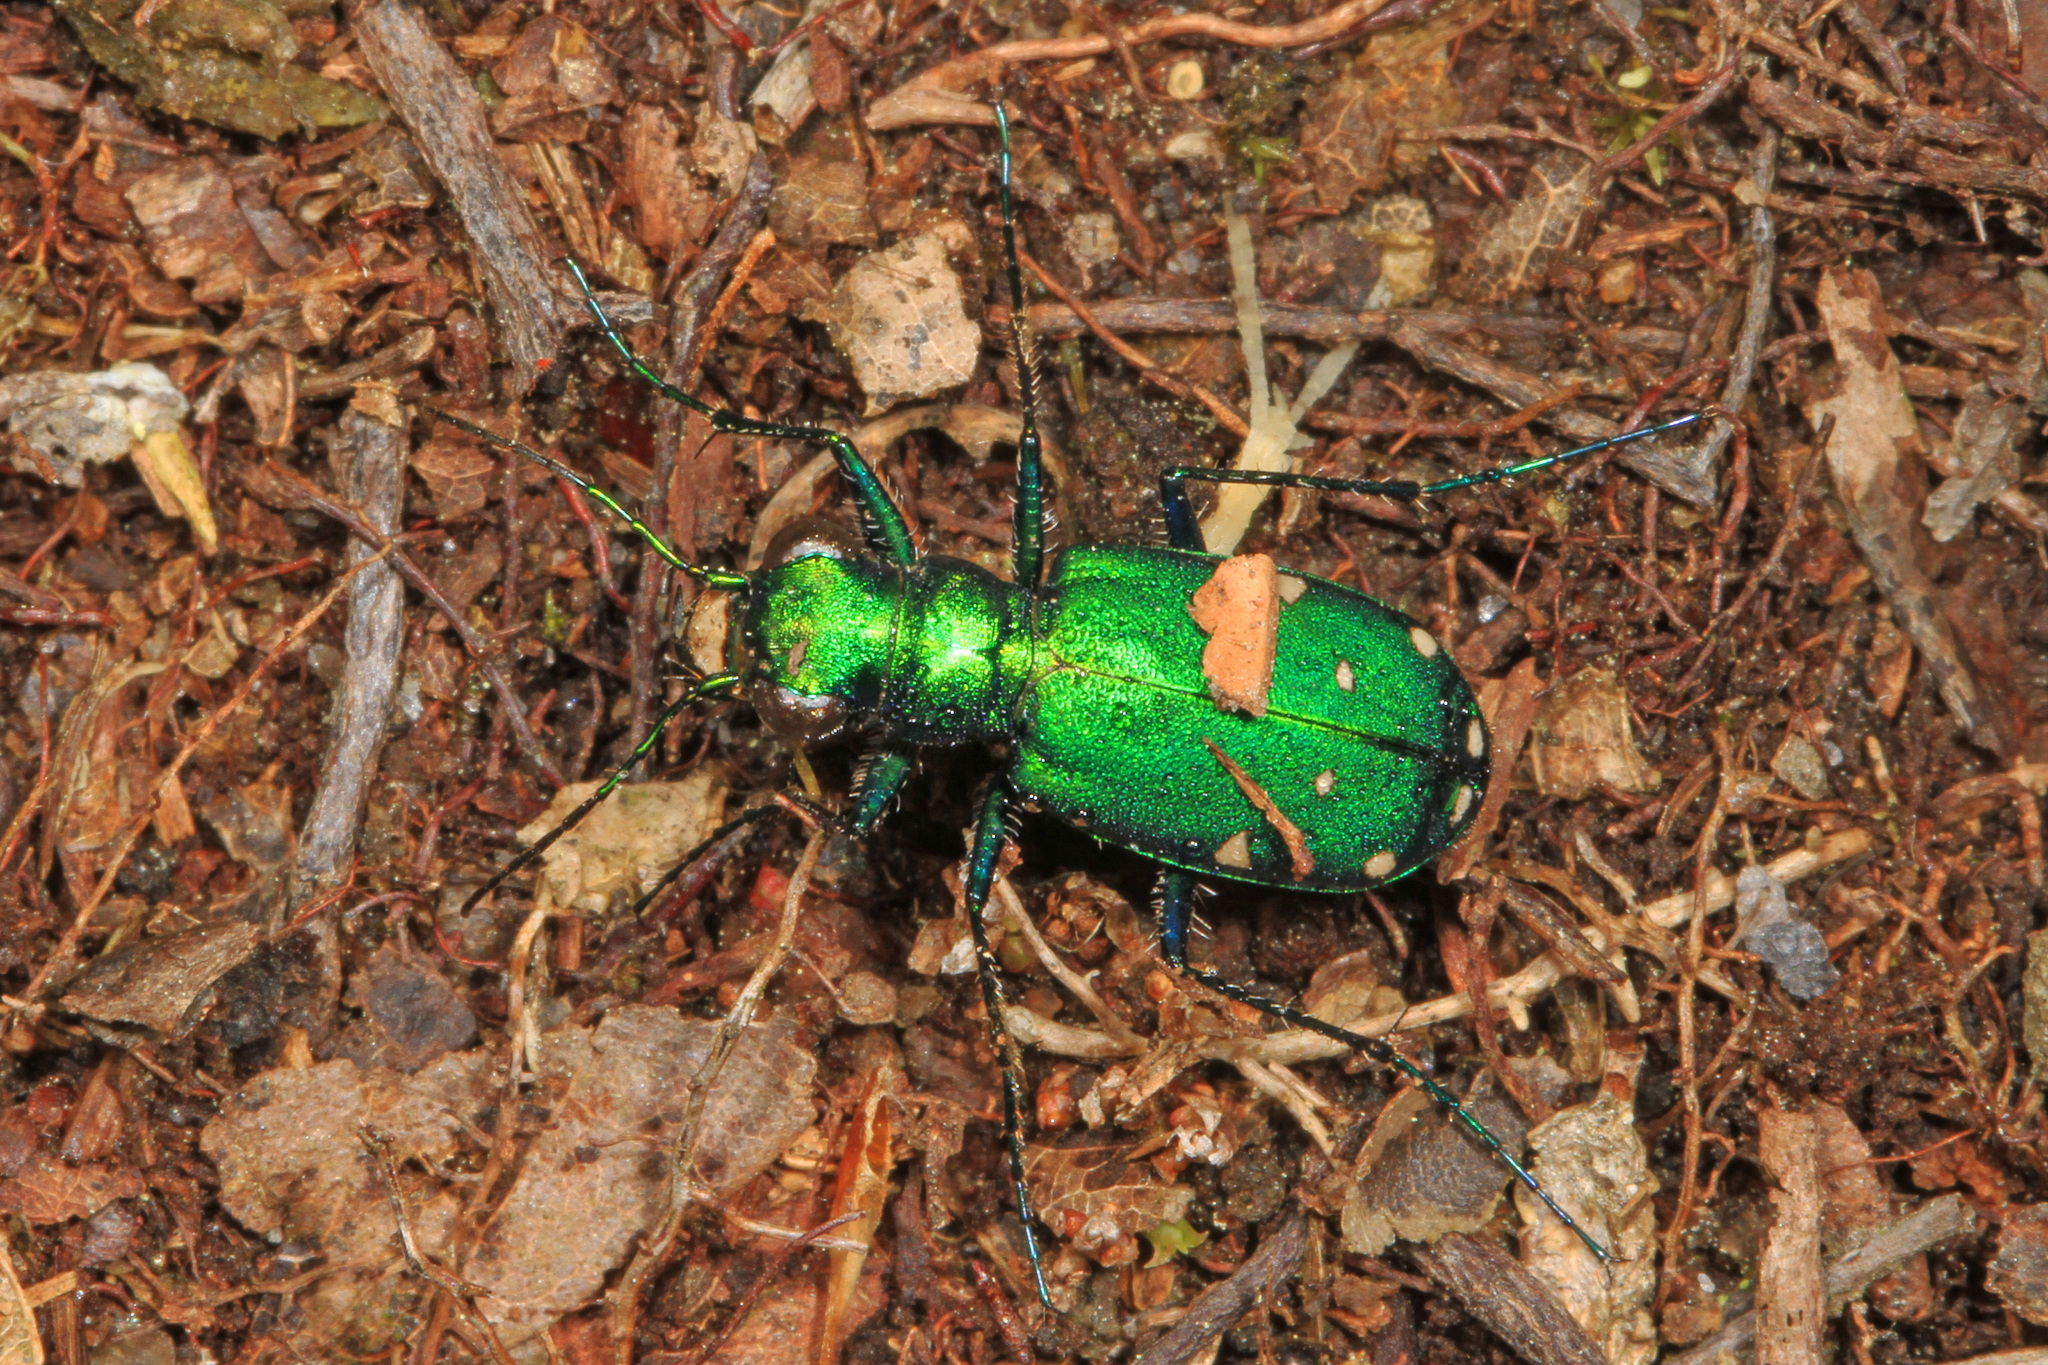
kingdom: Animalia
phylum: Arthropoda
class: Insecta
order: Coleoptera
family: Carabidae
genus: Cicindela
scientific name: Cicindela sexguttata
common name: Six-spotted tiger beetle
